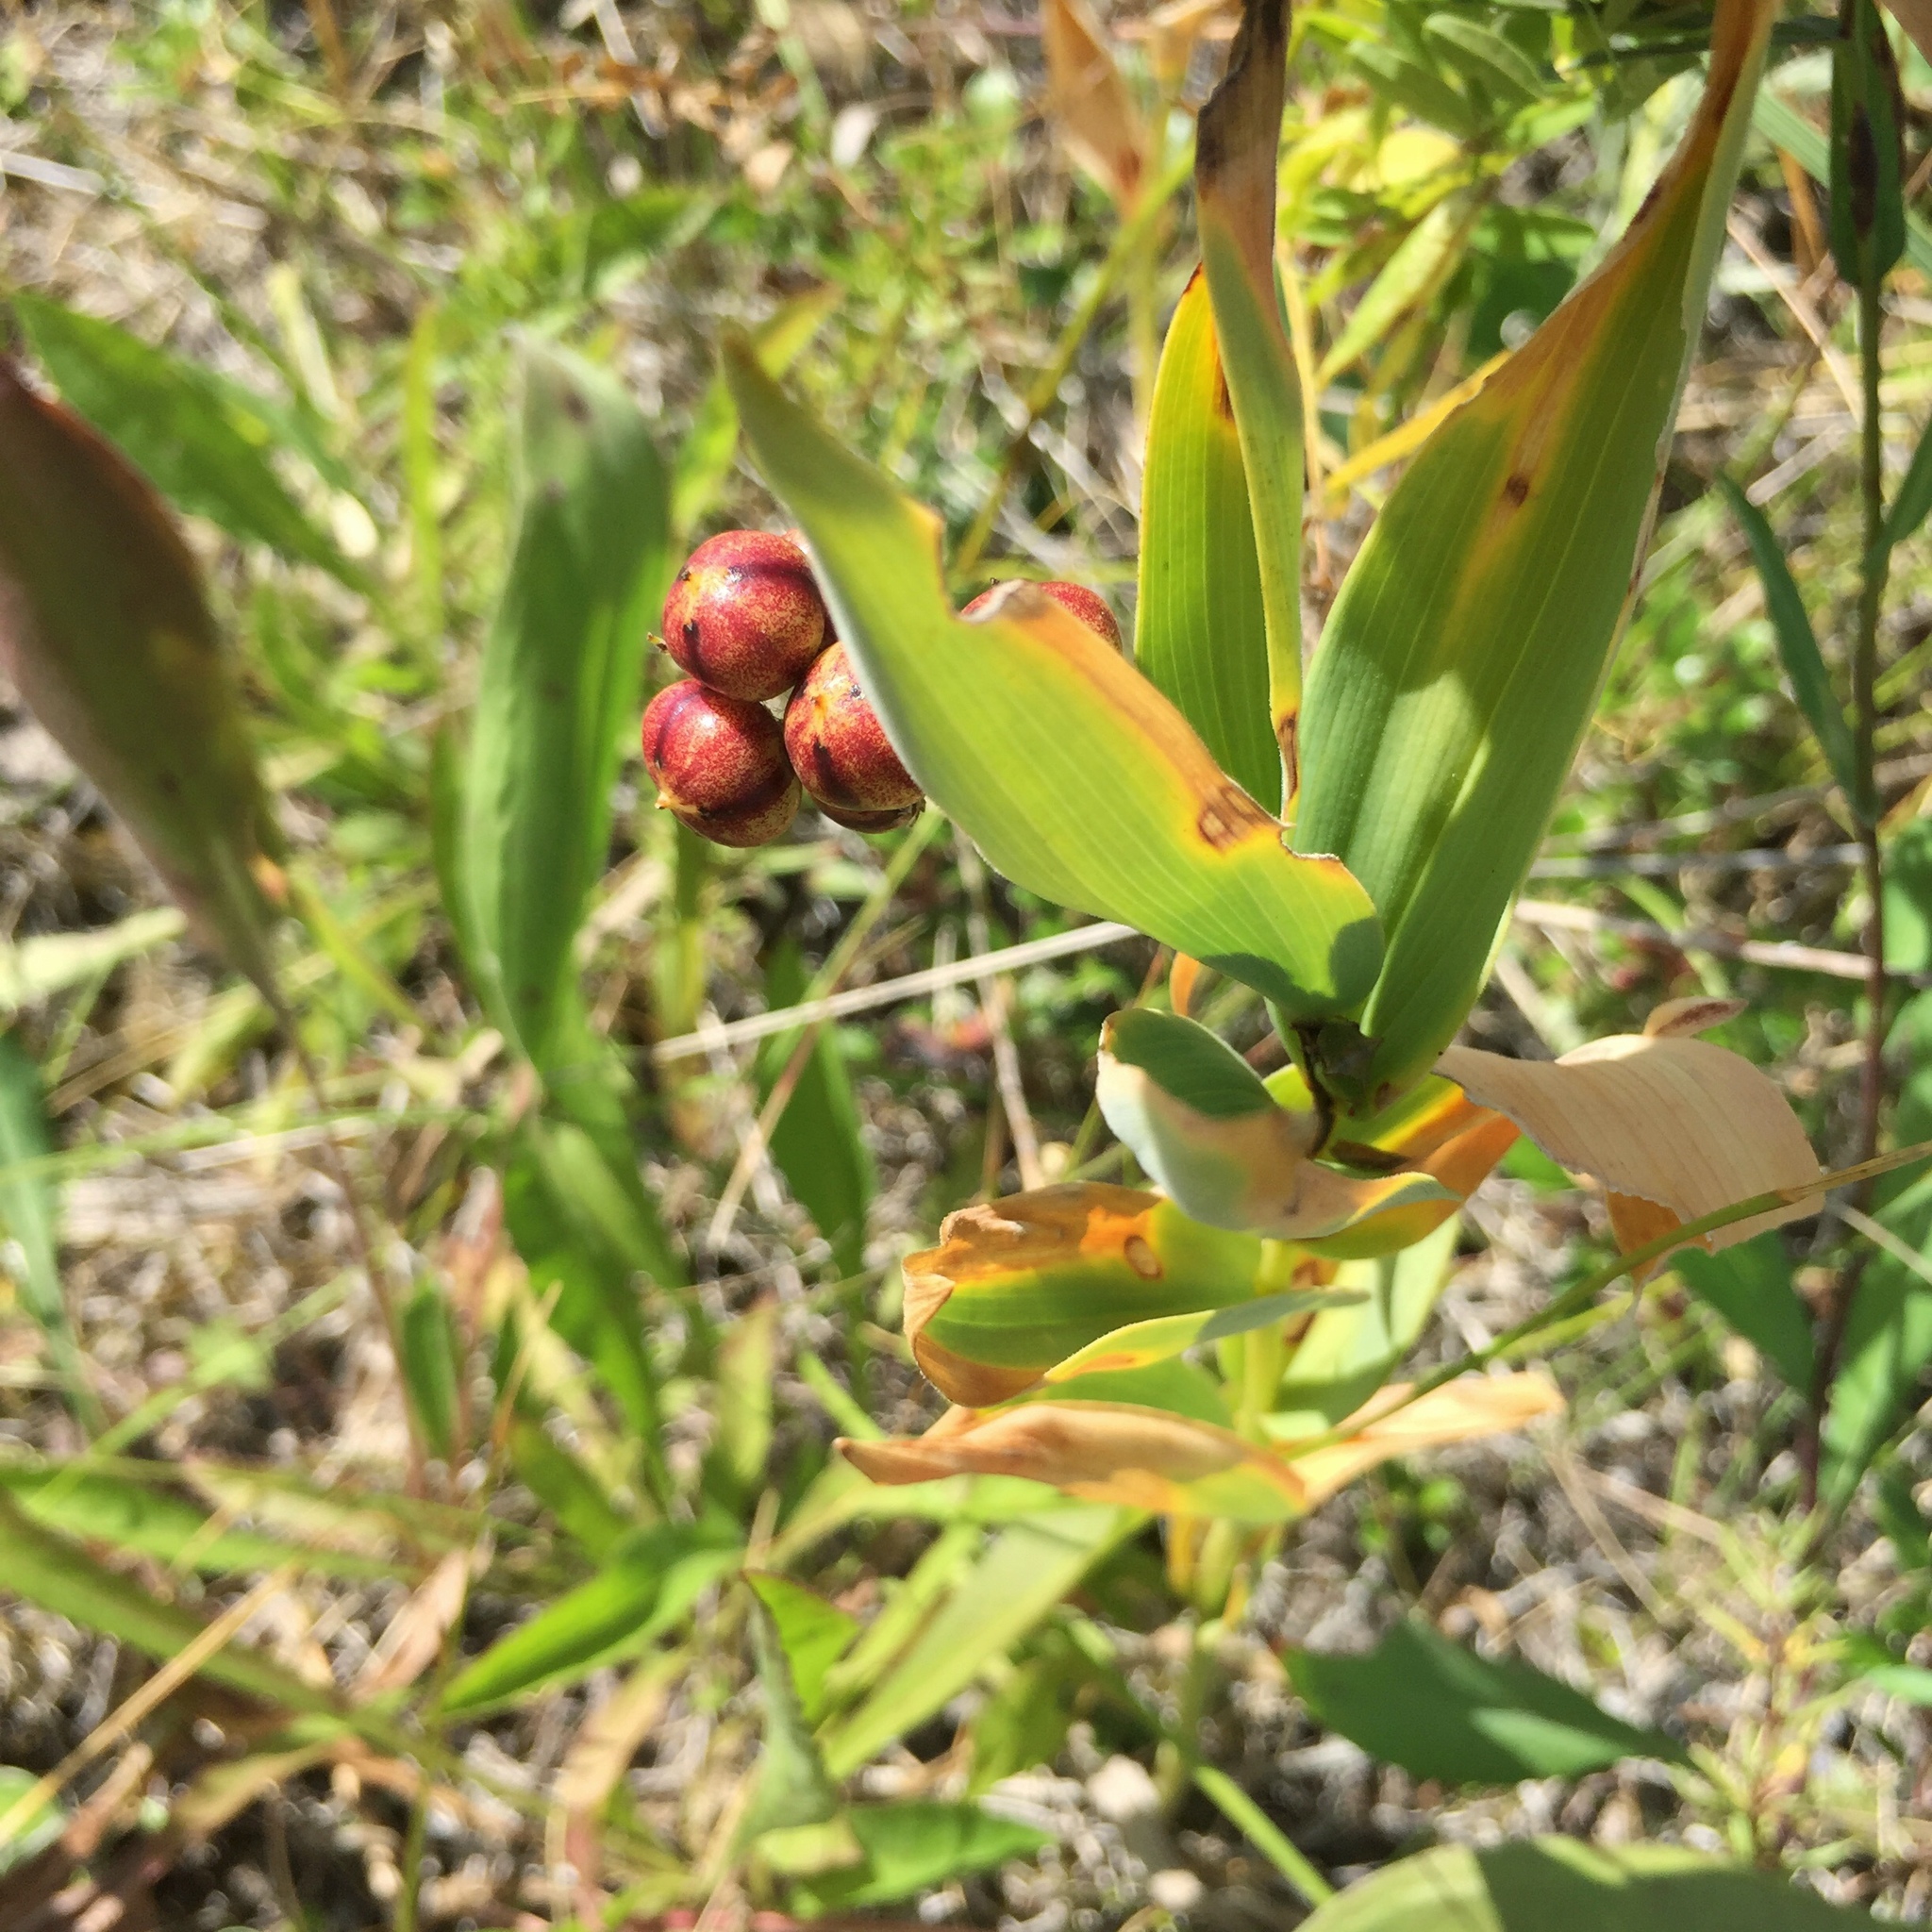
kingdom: Plantae
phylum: Tracheophyta
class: Liliopsida
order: Asparagales
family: Asparagaceae
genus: Maianthemum
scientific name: Maianthemum stellatum
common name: Little false solomon's seal
